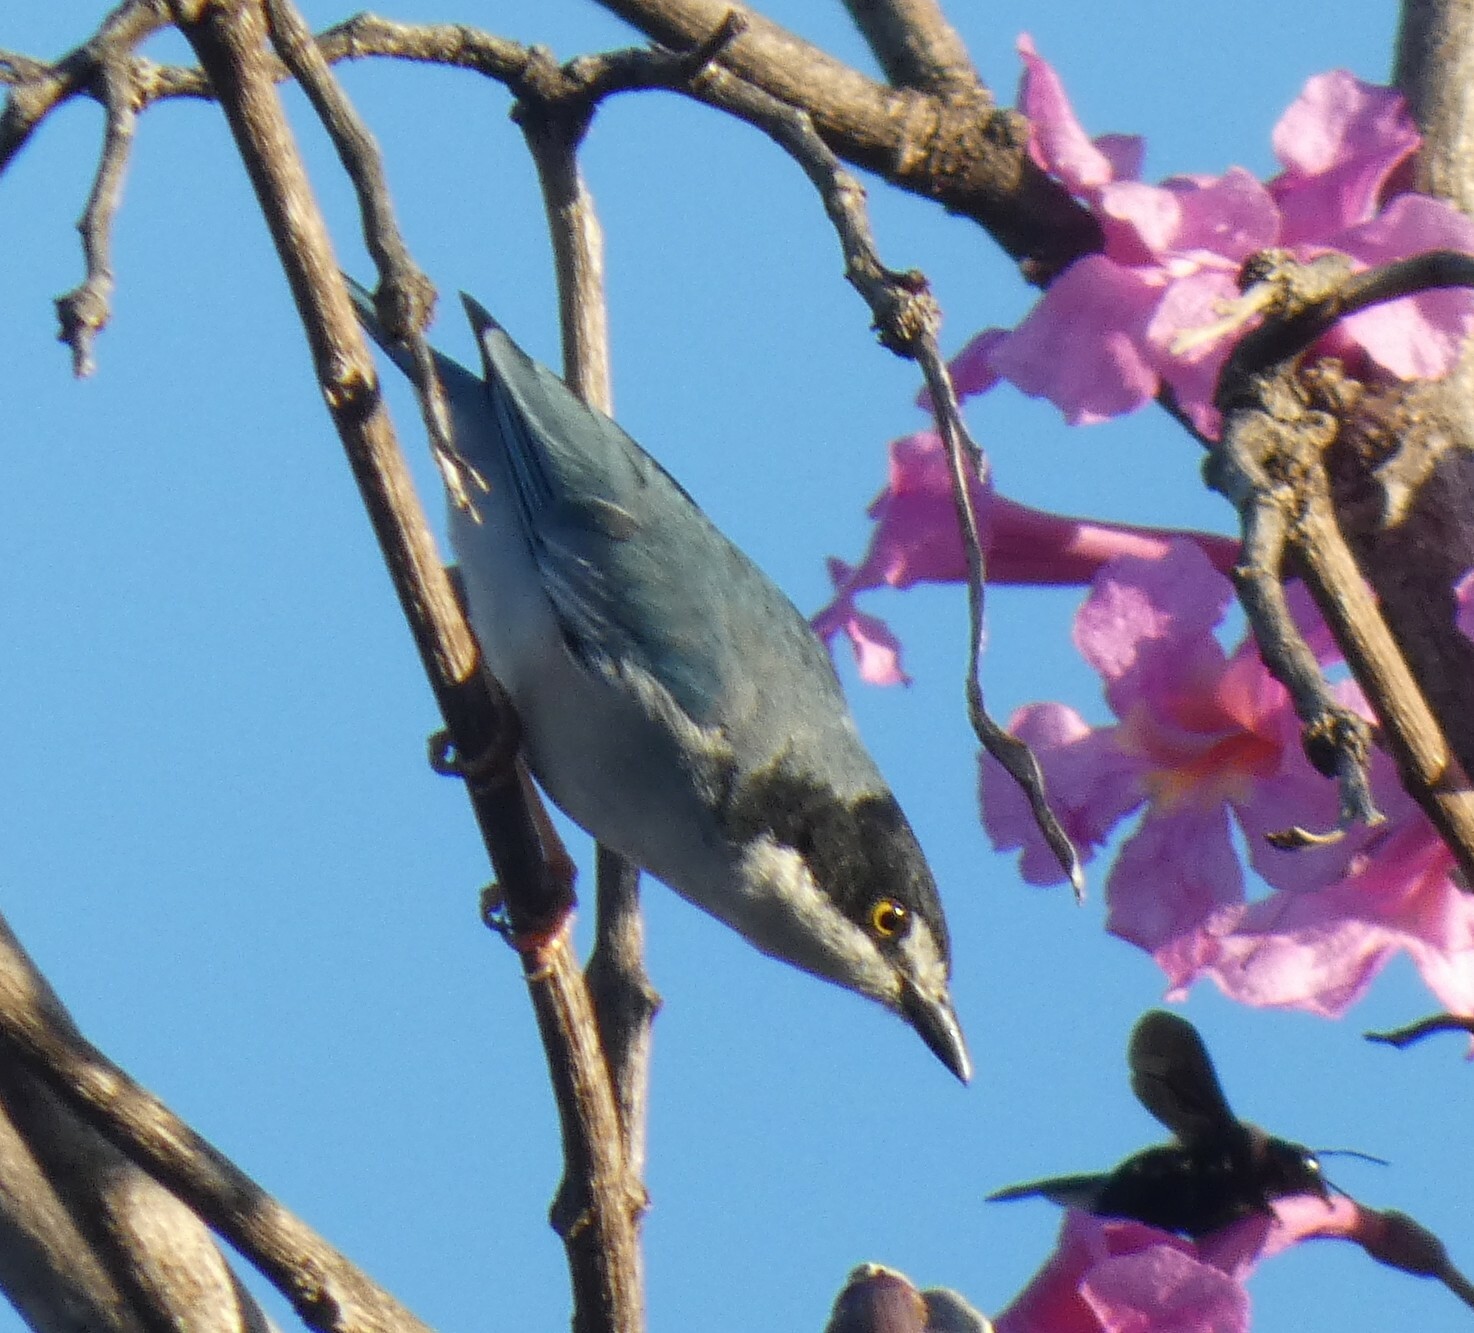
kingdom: Animalia
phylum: Chordata
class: Aves
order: Passeriformes
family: Thraupidae
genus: Nemosia
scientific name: Nemosia pileata
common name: Hooded tanager
